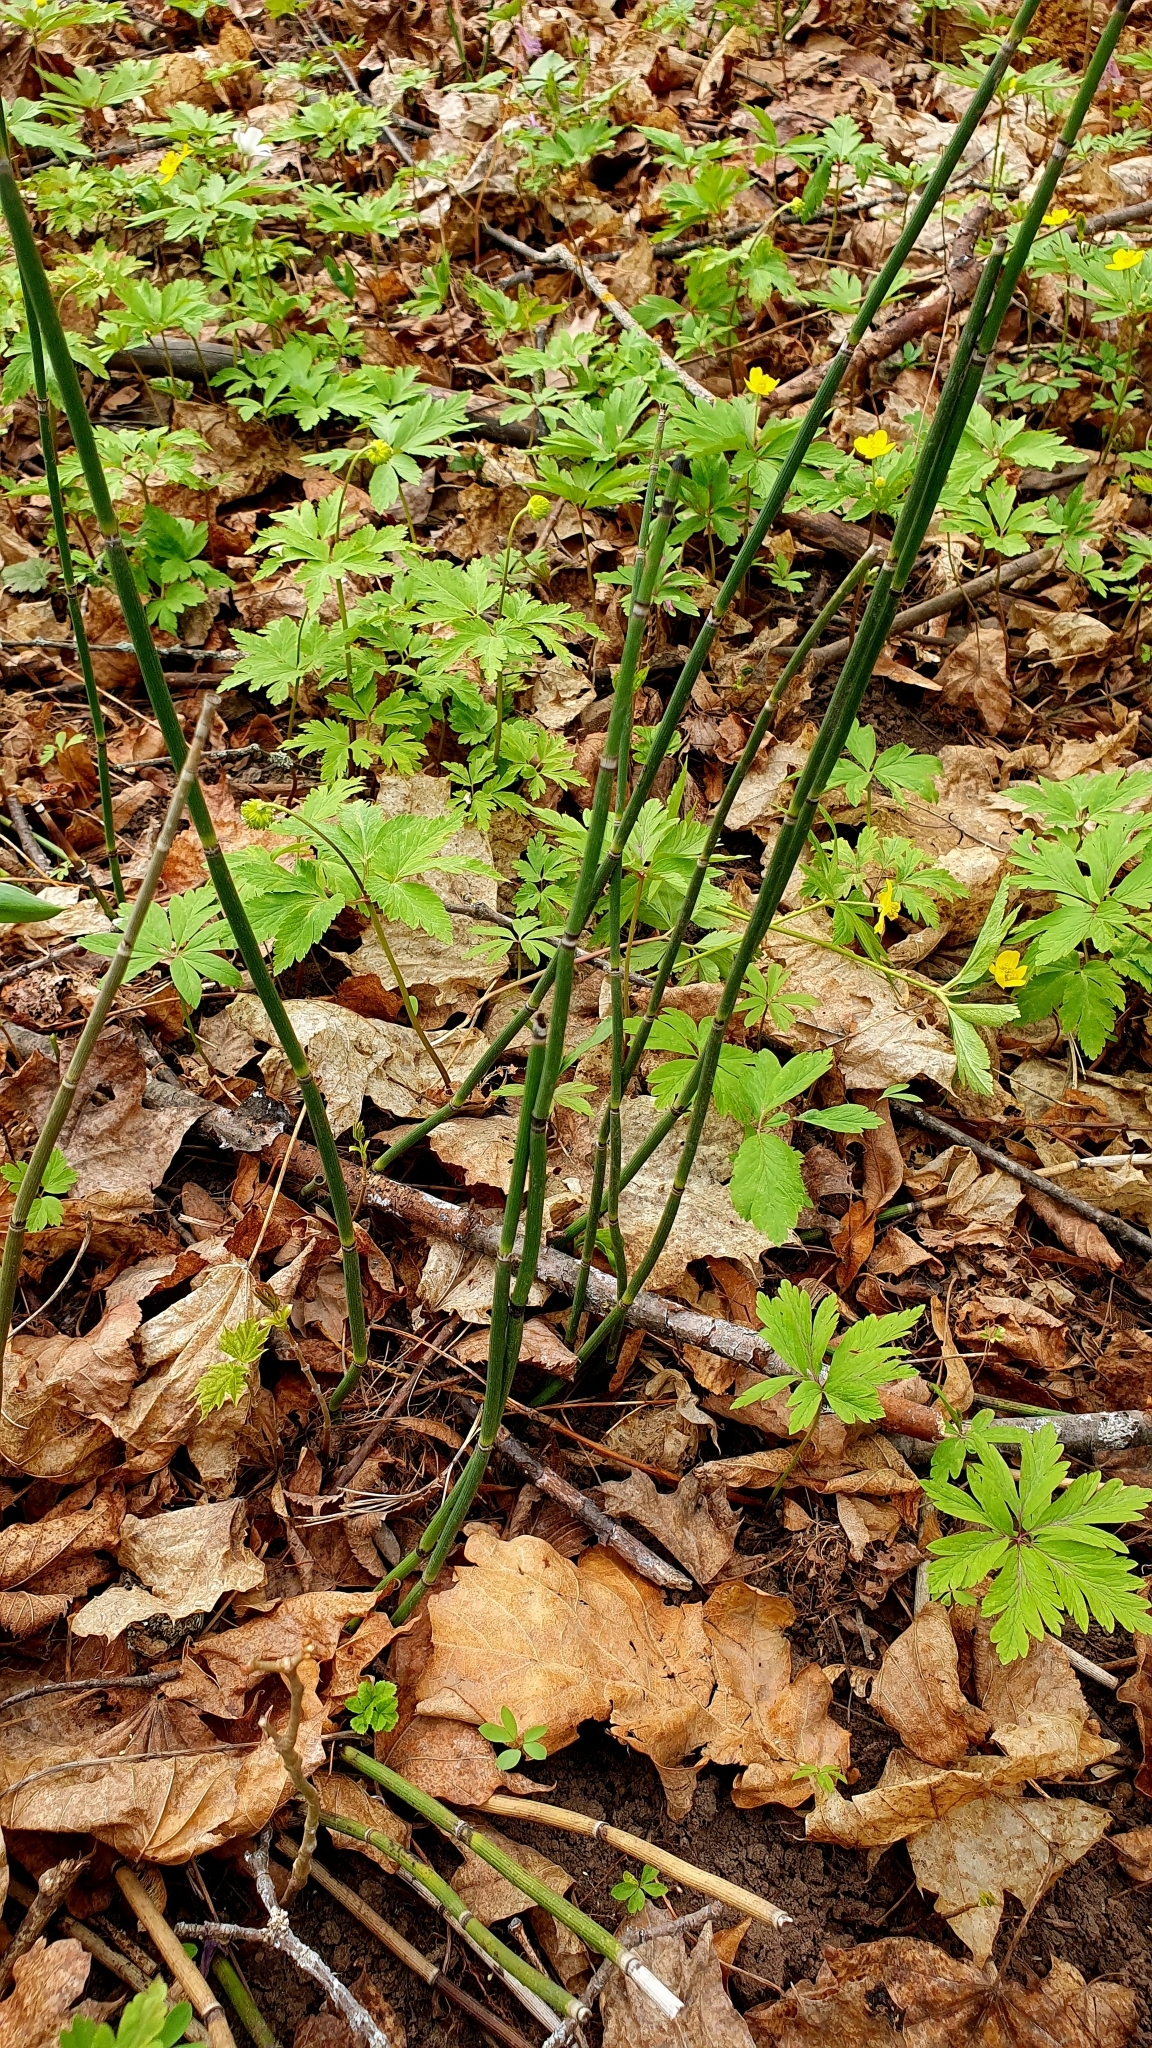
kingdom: Plantae
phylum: Tracheophyta
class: Polypodiopsida
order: Equisetales
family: Equisetaceae
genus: Equisetum
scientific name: Equisetum hyemale
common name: Rough horsetail
